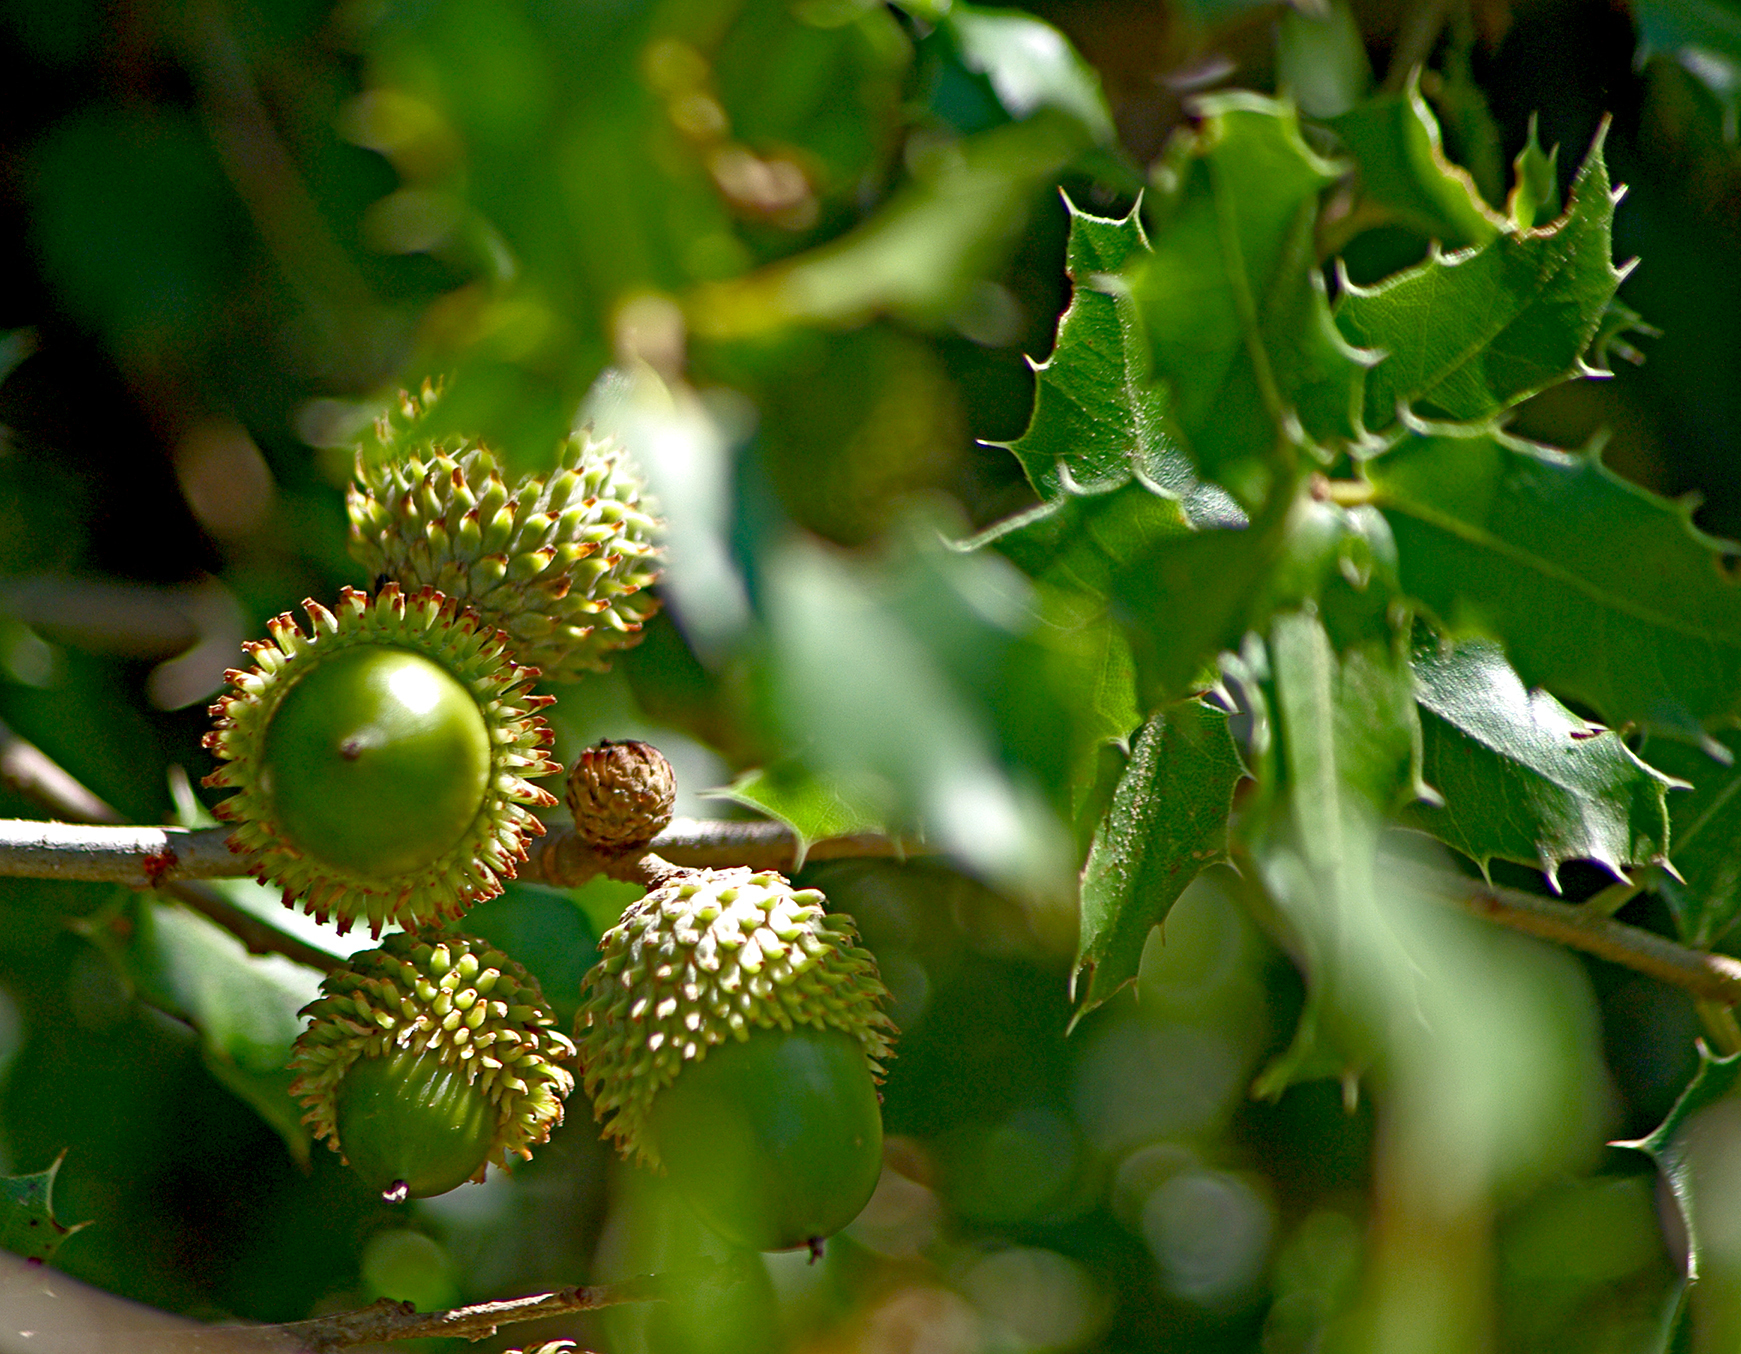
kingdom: Plantae
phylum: Tracheophyta
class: Magnoliopsida
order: Fagales
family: Fagaceae
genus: Quercus
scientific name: Quercus coccifera
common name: Kermes oak
